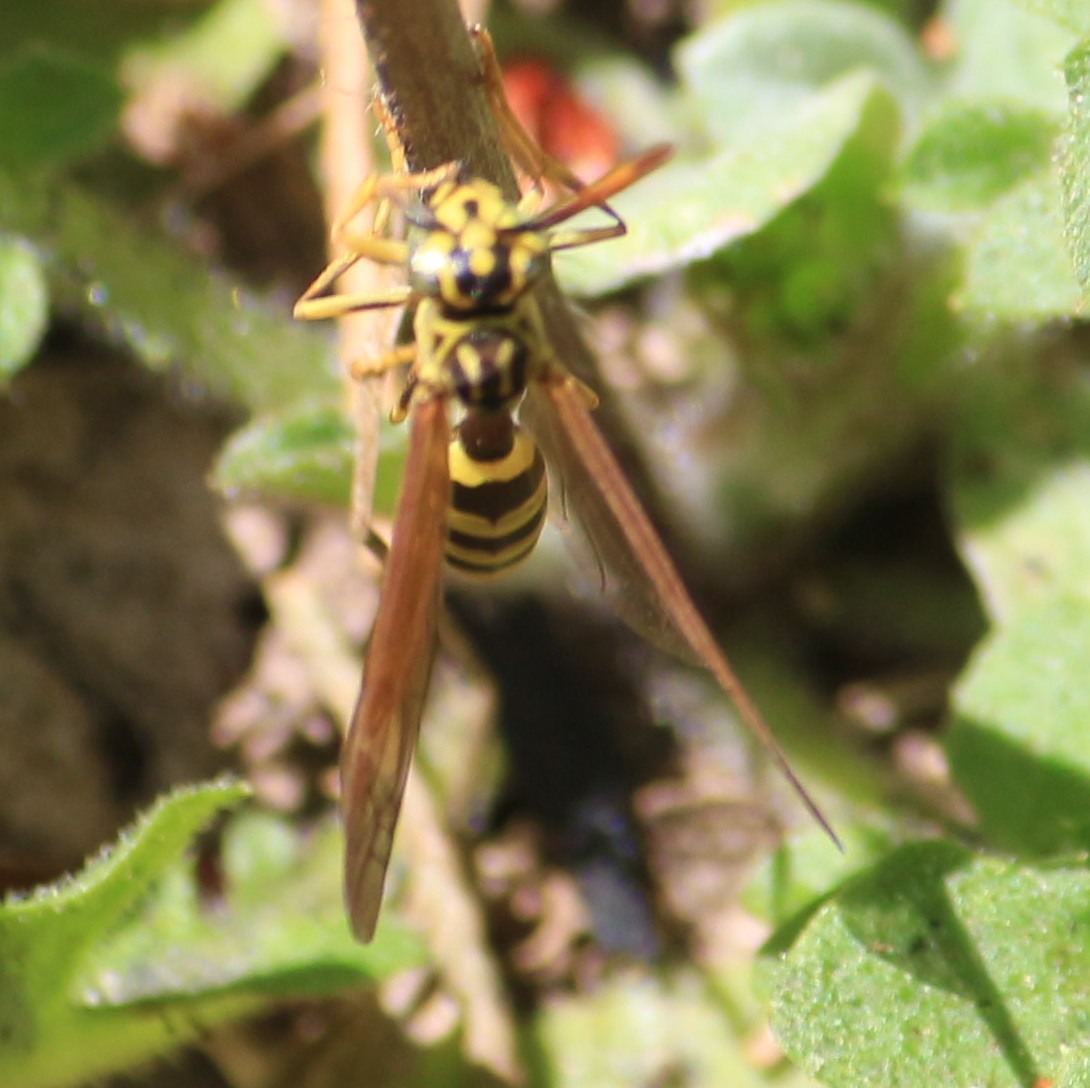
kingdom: Animalia
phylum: Arthropoda
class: Insecta
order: Hymenoptera
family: Vespidae
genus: Agelaia
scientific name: Agelaia areata
